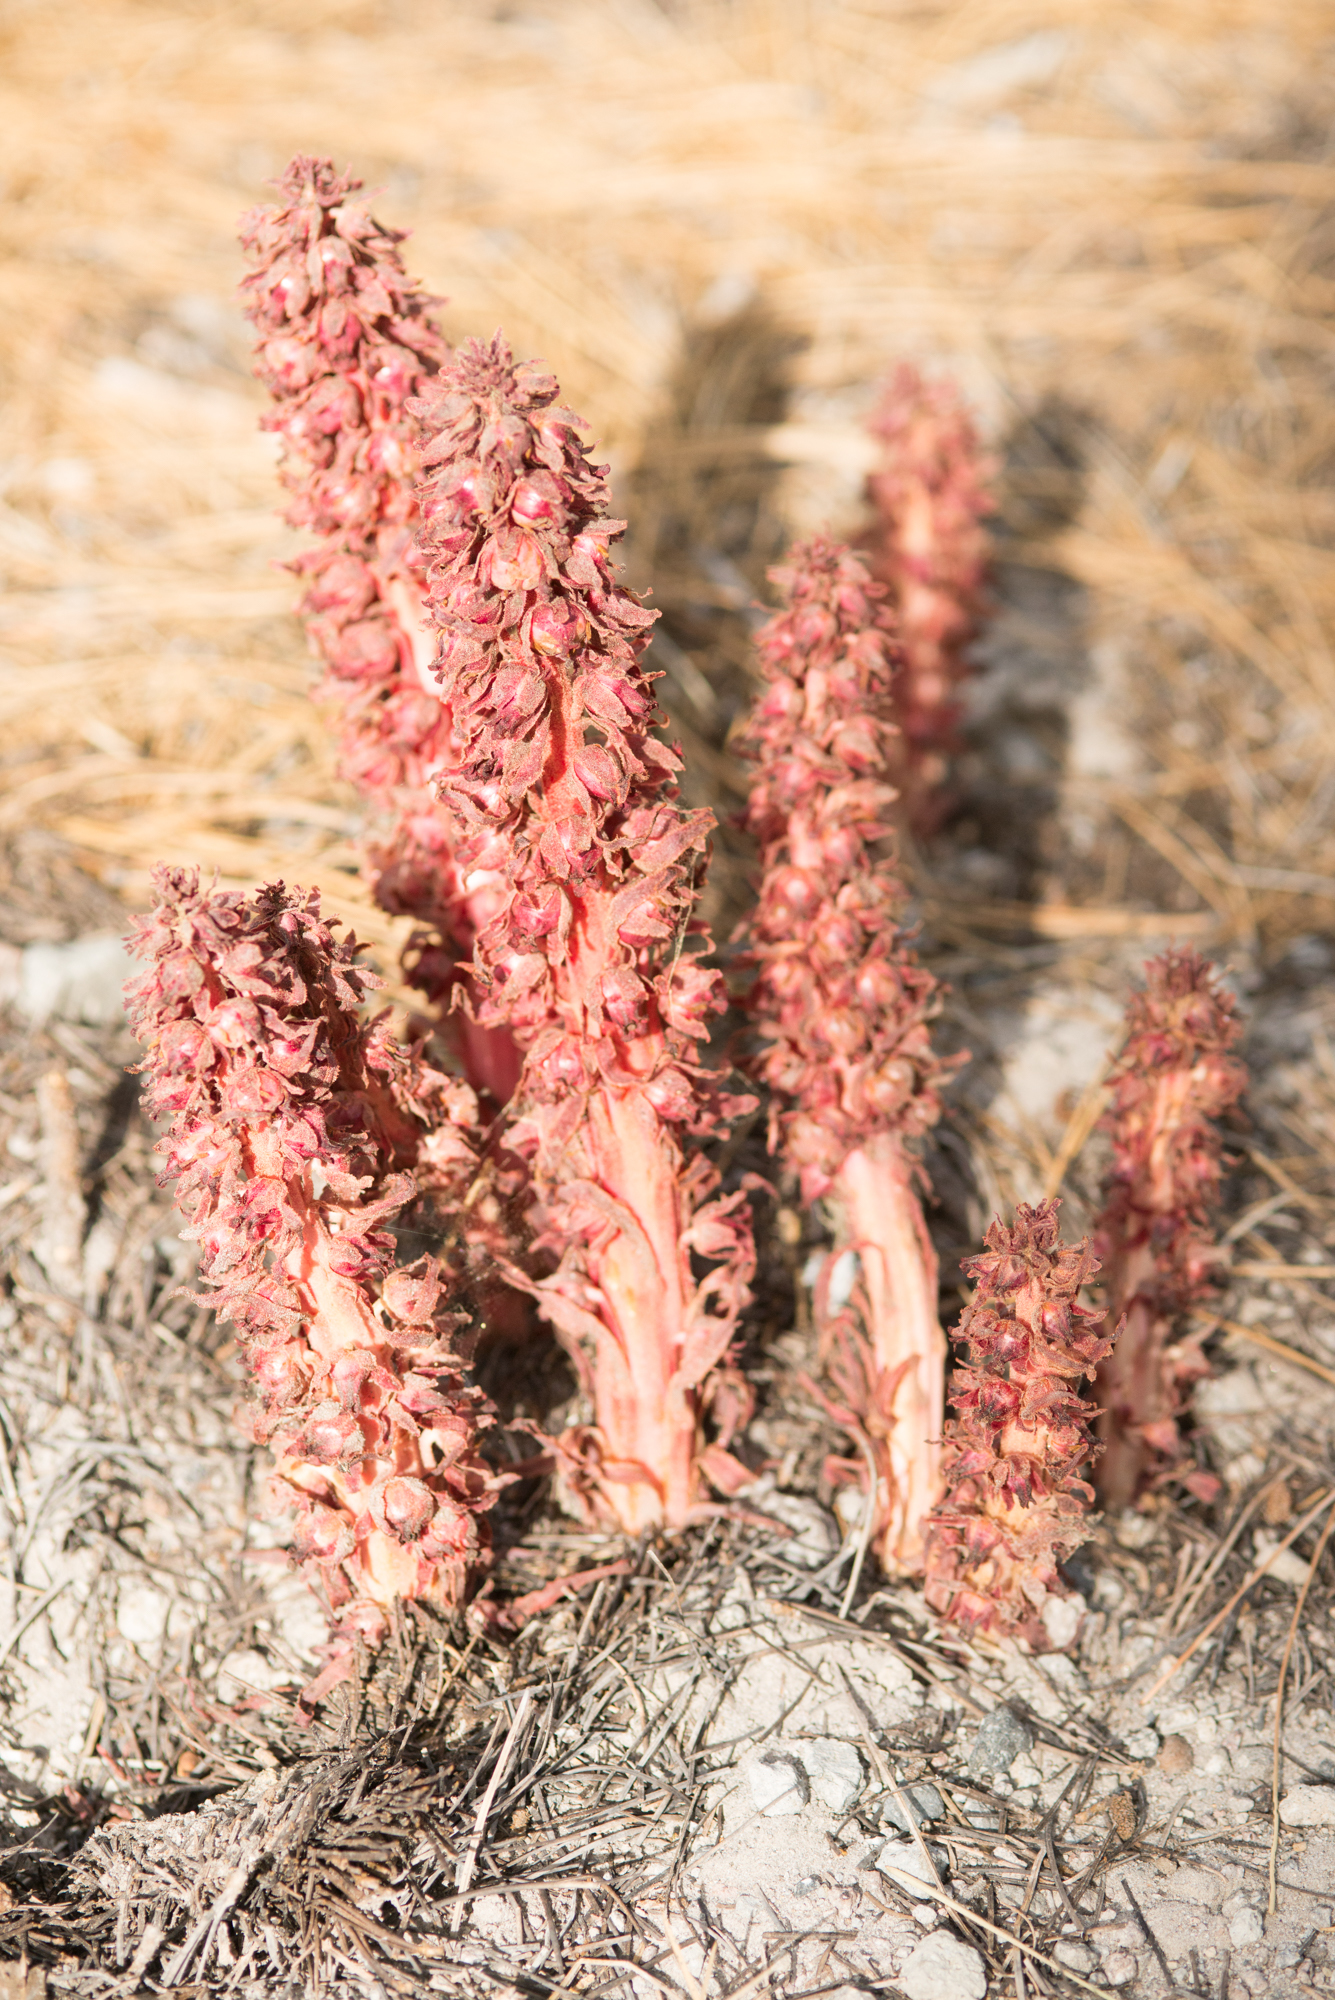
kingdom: Plantae
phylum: Tracheophyta
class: Magnoliopsida
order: Ericales
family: Ericaceae
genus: Sarcodes
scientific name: Sarcodes sanguinea
